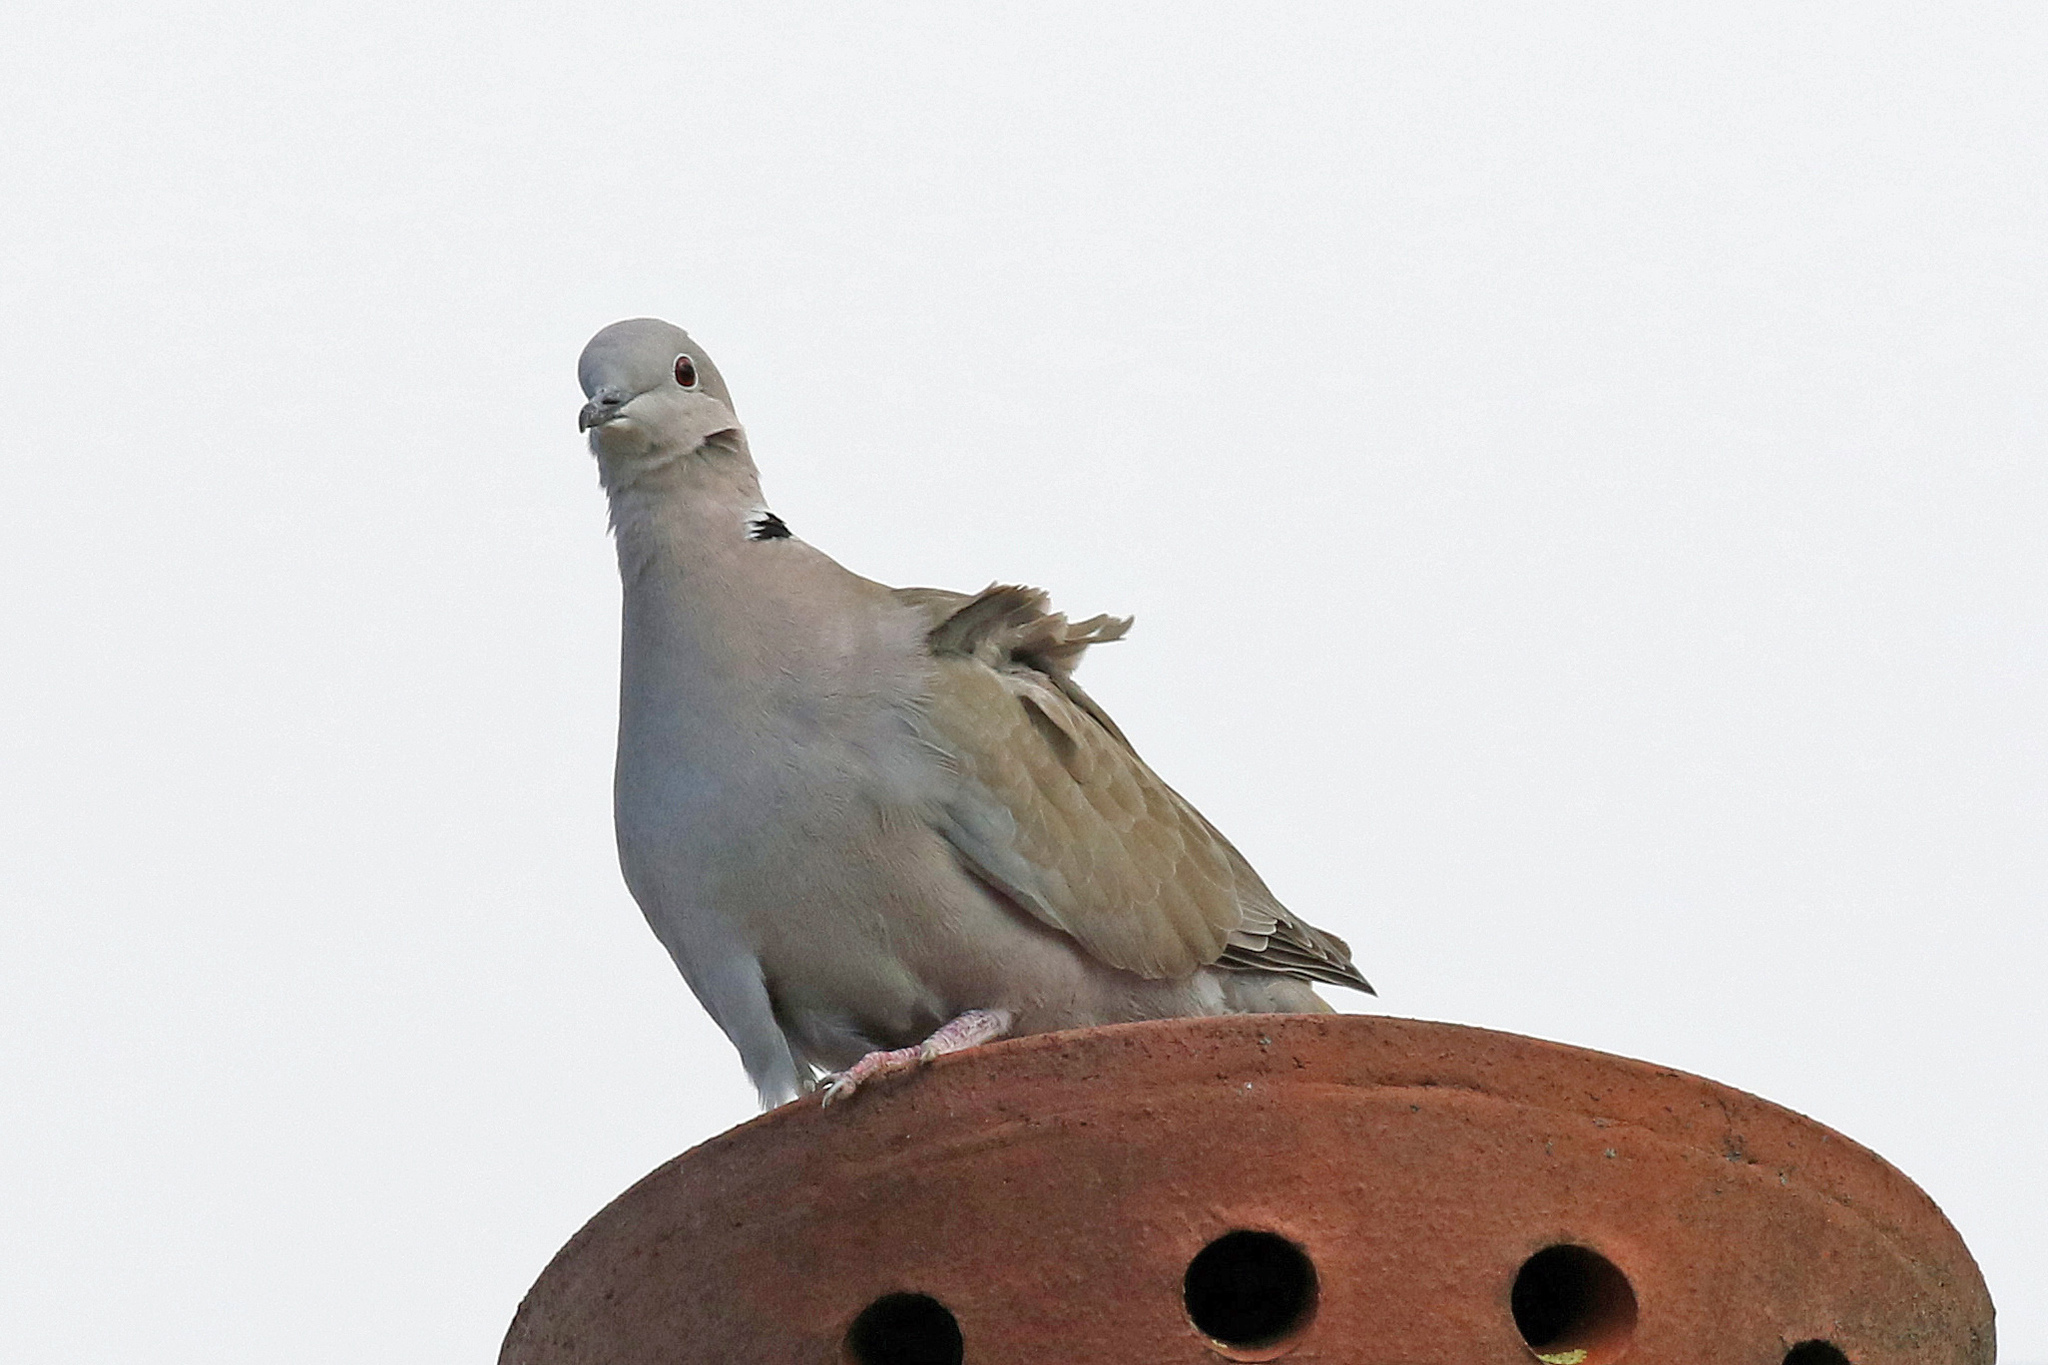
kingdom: Animalia
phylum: Chordata
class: Aves
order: Columbiformes
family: Columbidae
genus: Streptopelia
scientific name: Streptopelia decaocto
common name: Eurasian collared dove
